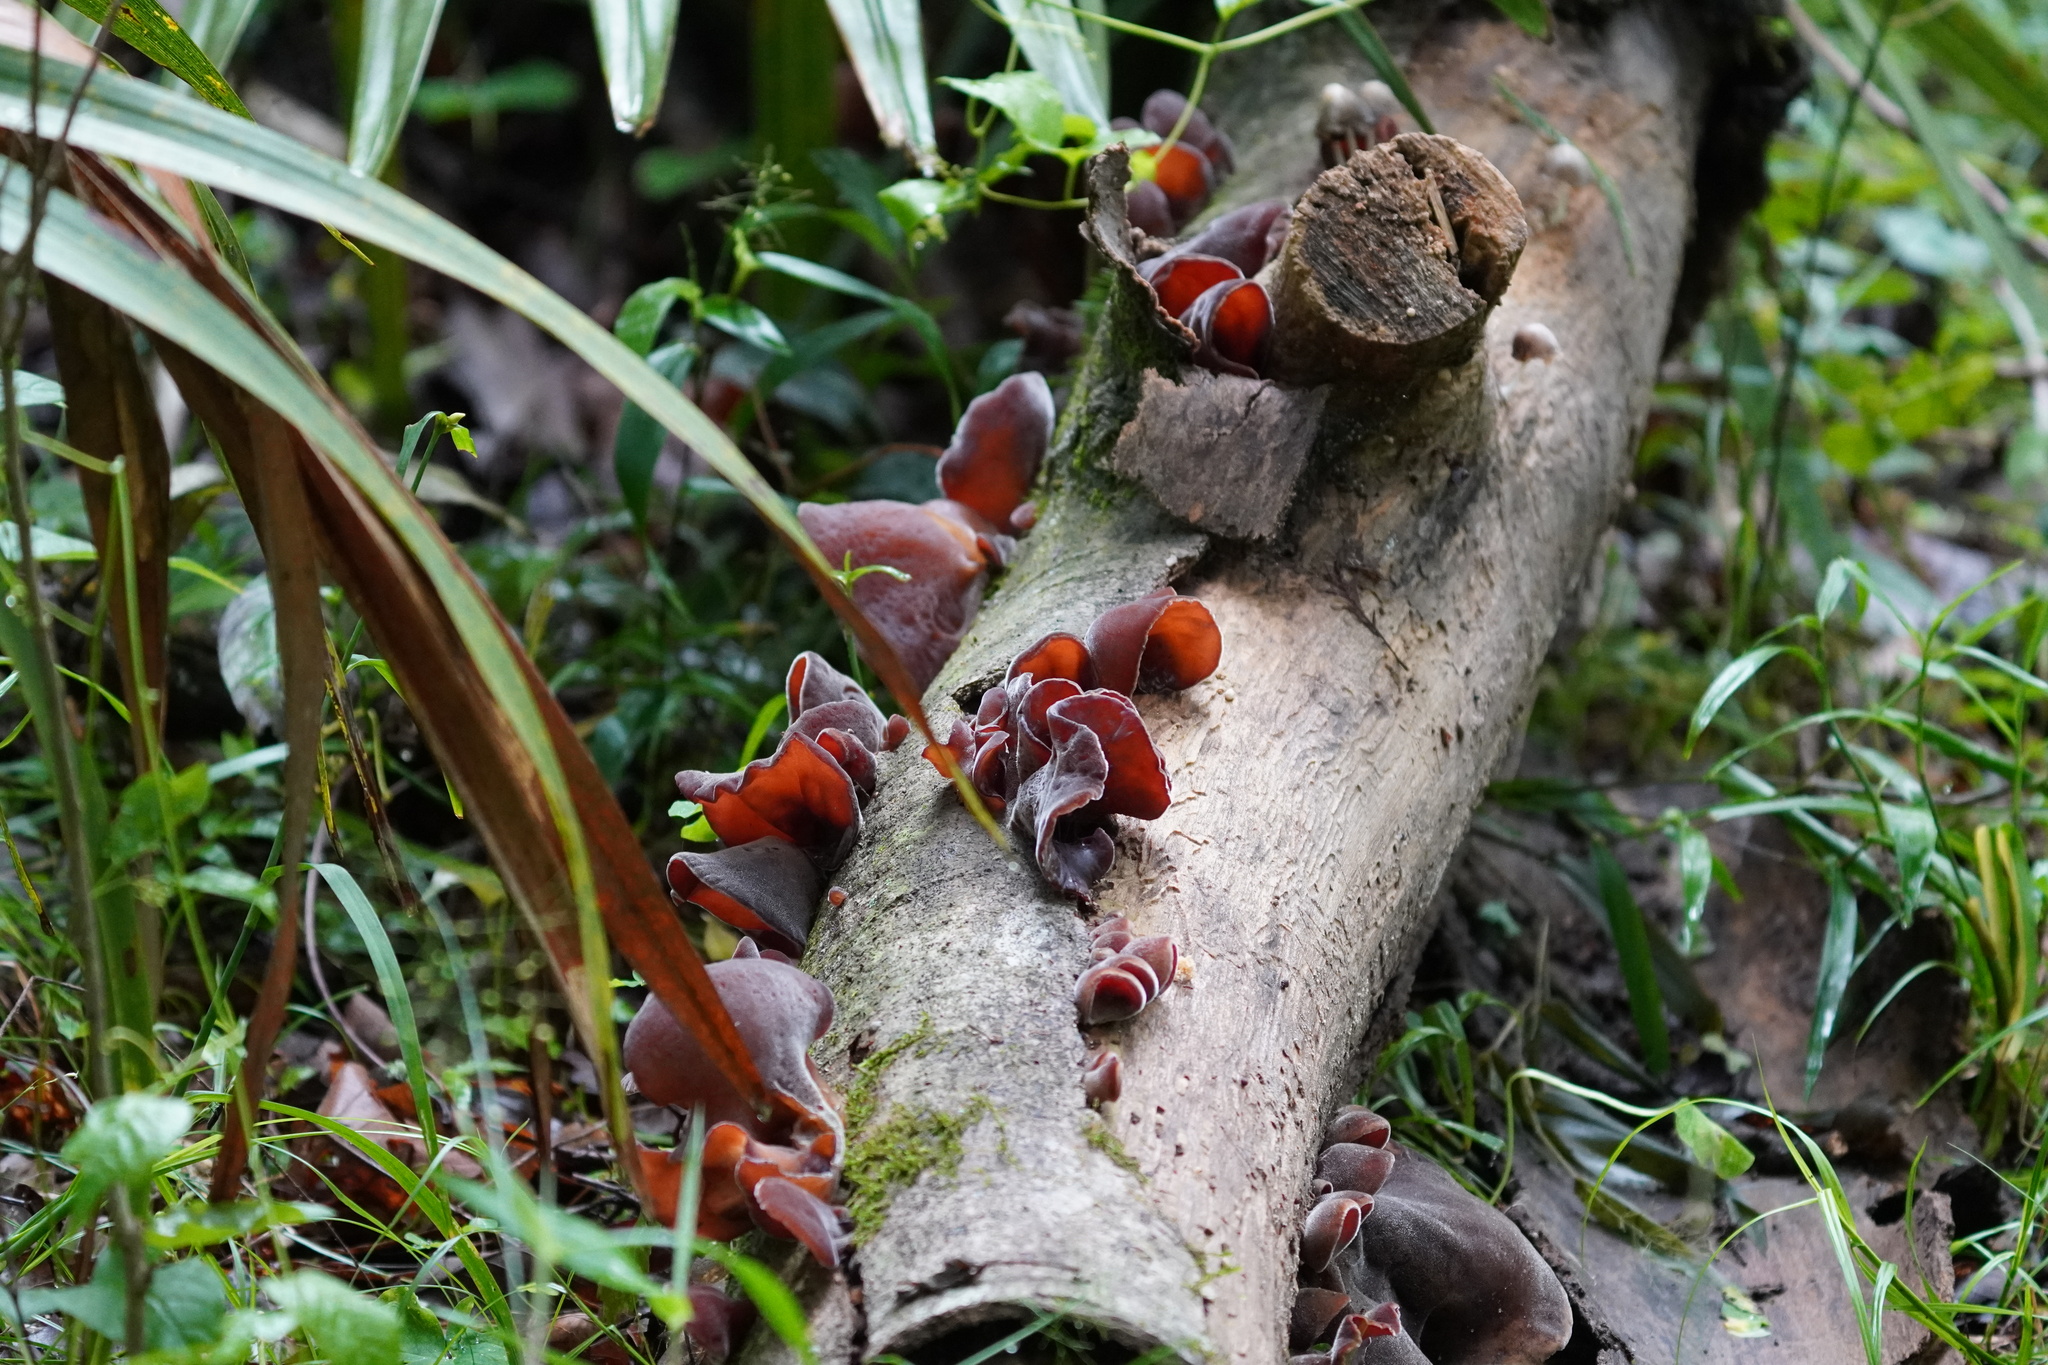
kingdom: Fungi
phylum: Basidiomycota
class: Agaricomycetes
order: Auriculariales
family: Auriculariaceae
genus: Auricularia
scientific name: Auricularia nigricans
